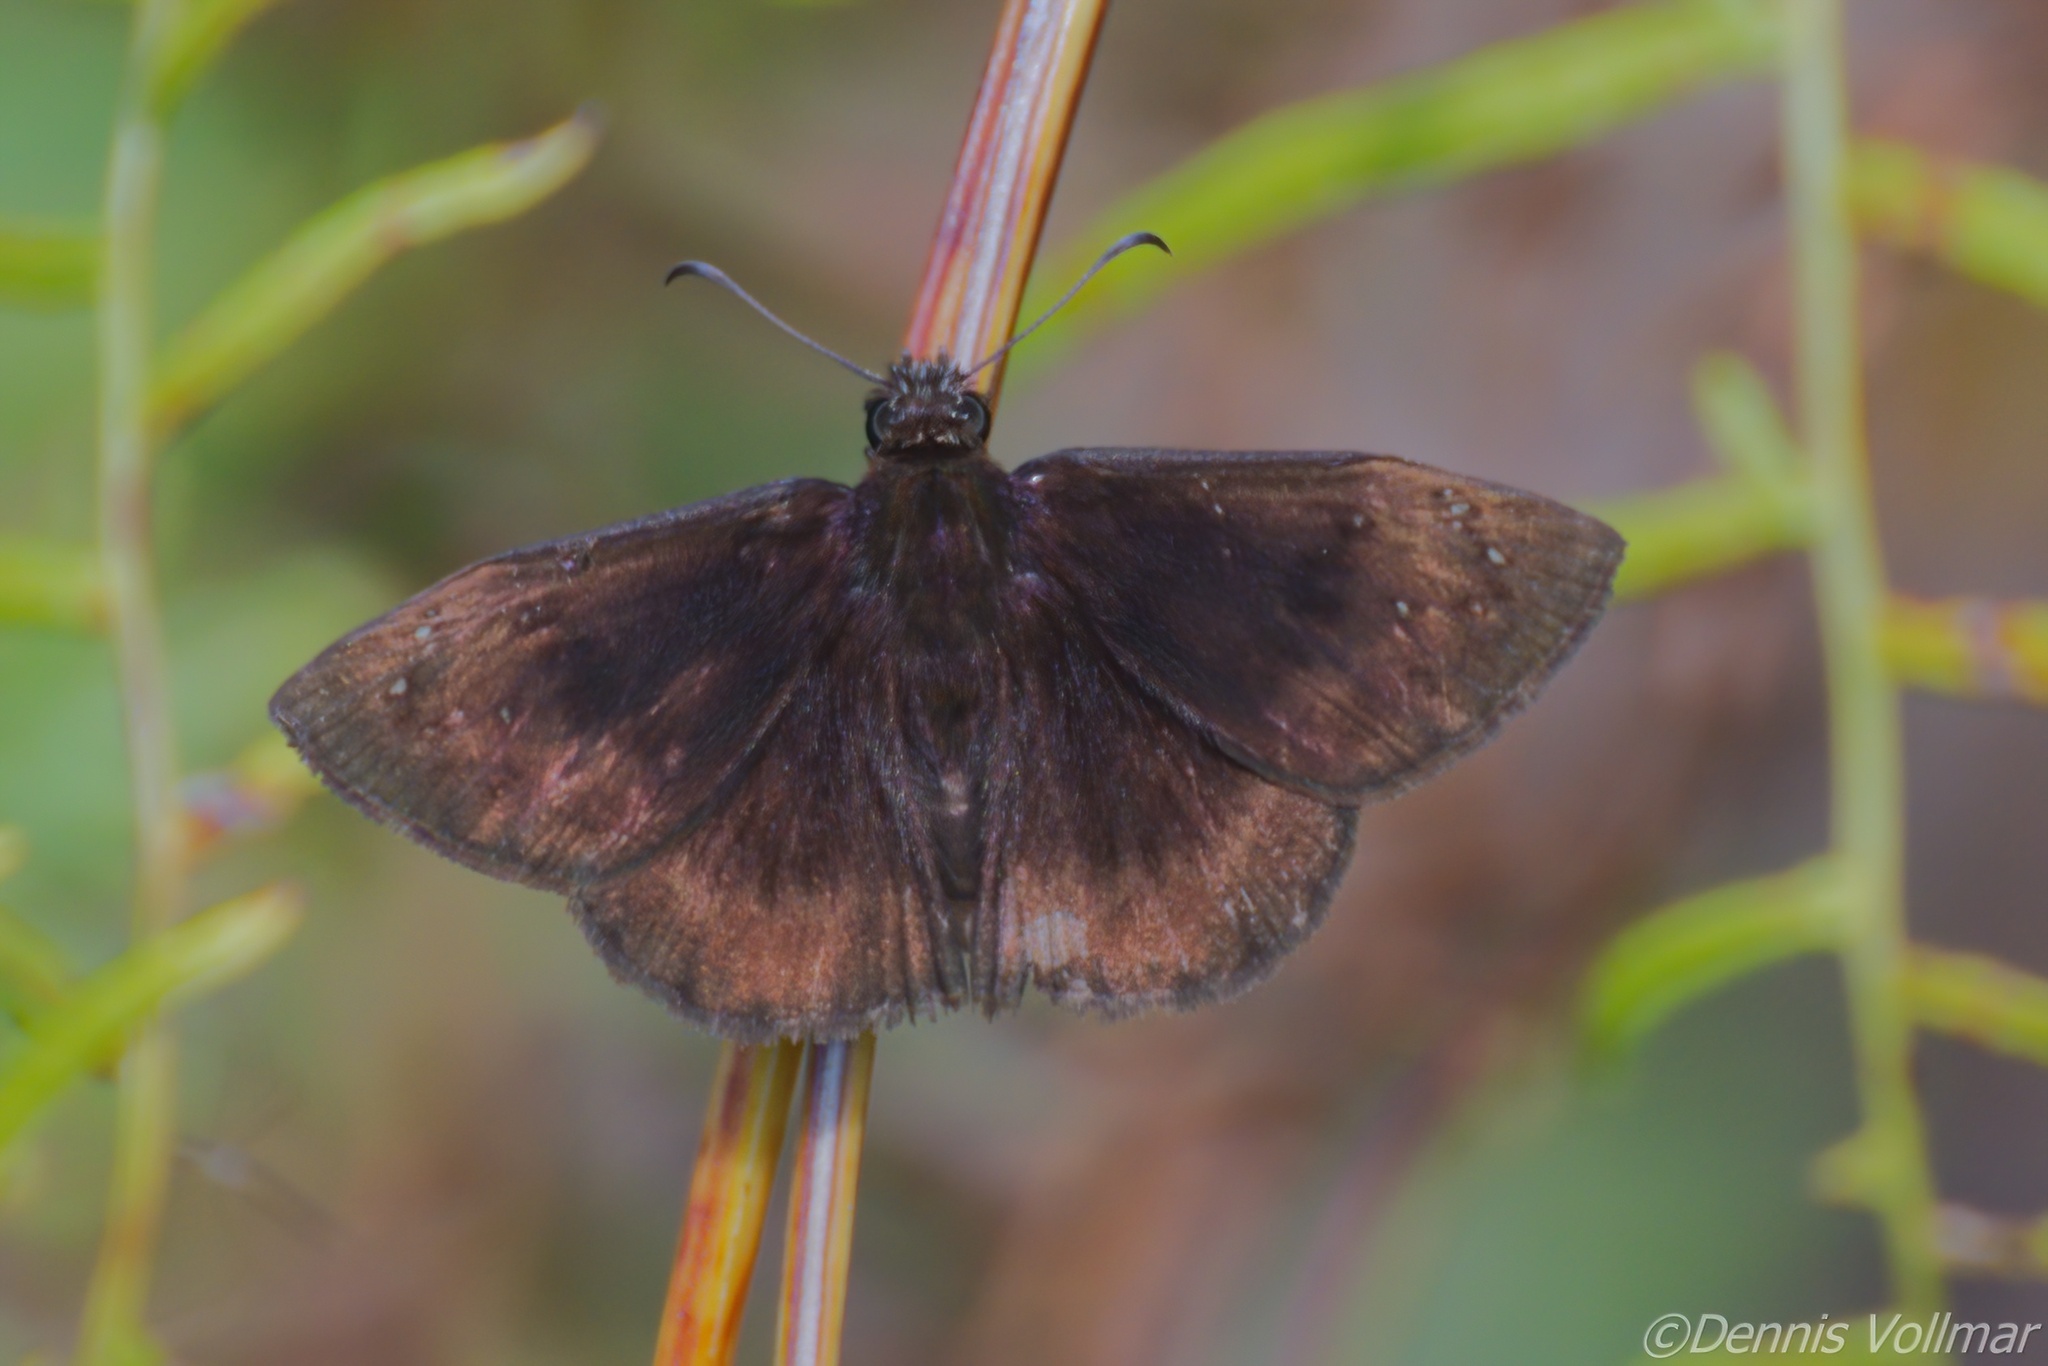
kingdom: Animalia
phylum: Arthropoda
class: Insecta
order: Lepidoptera
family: Hesperiidae
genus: Ephyriades
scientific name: Ephyriades brunnea
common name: Florida duskywing
